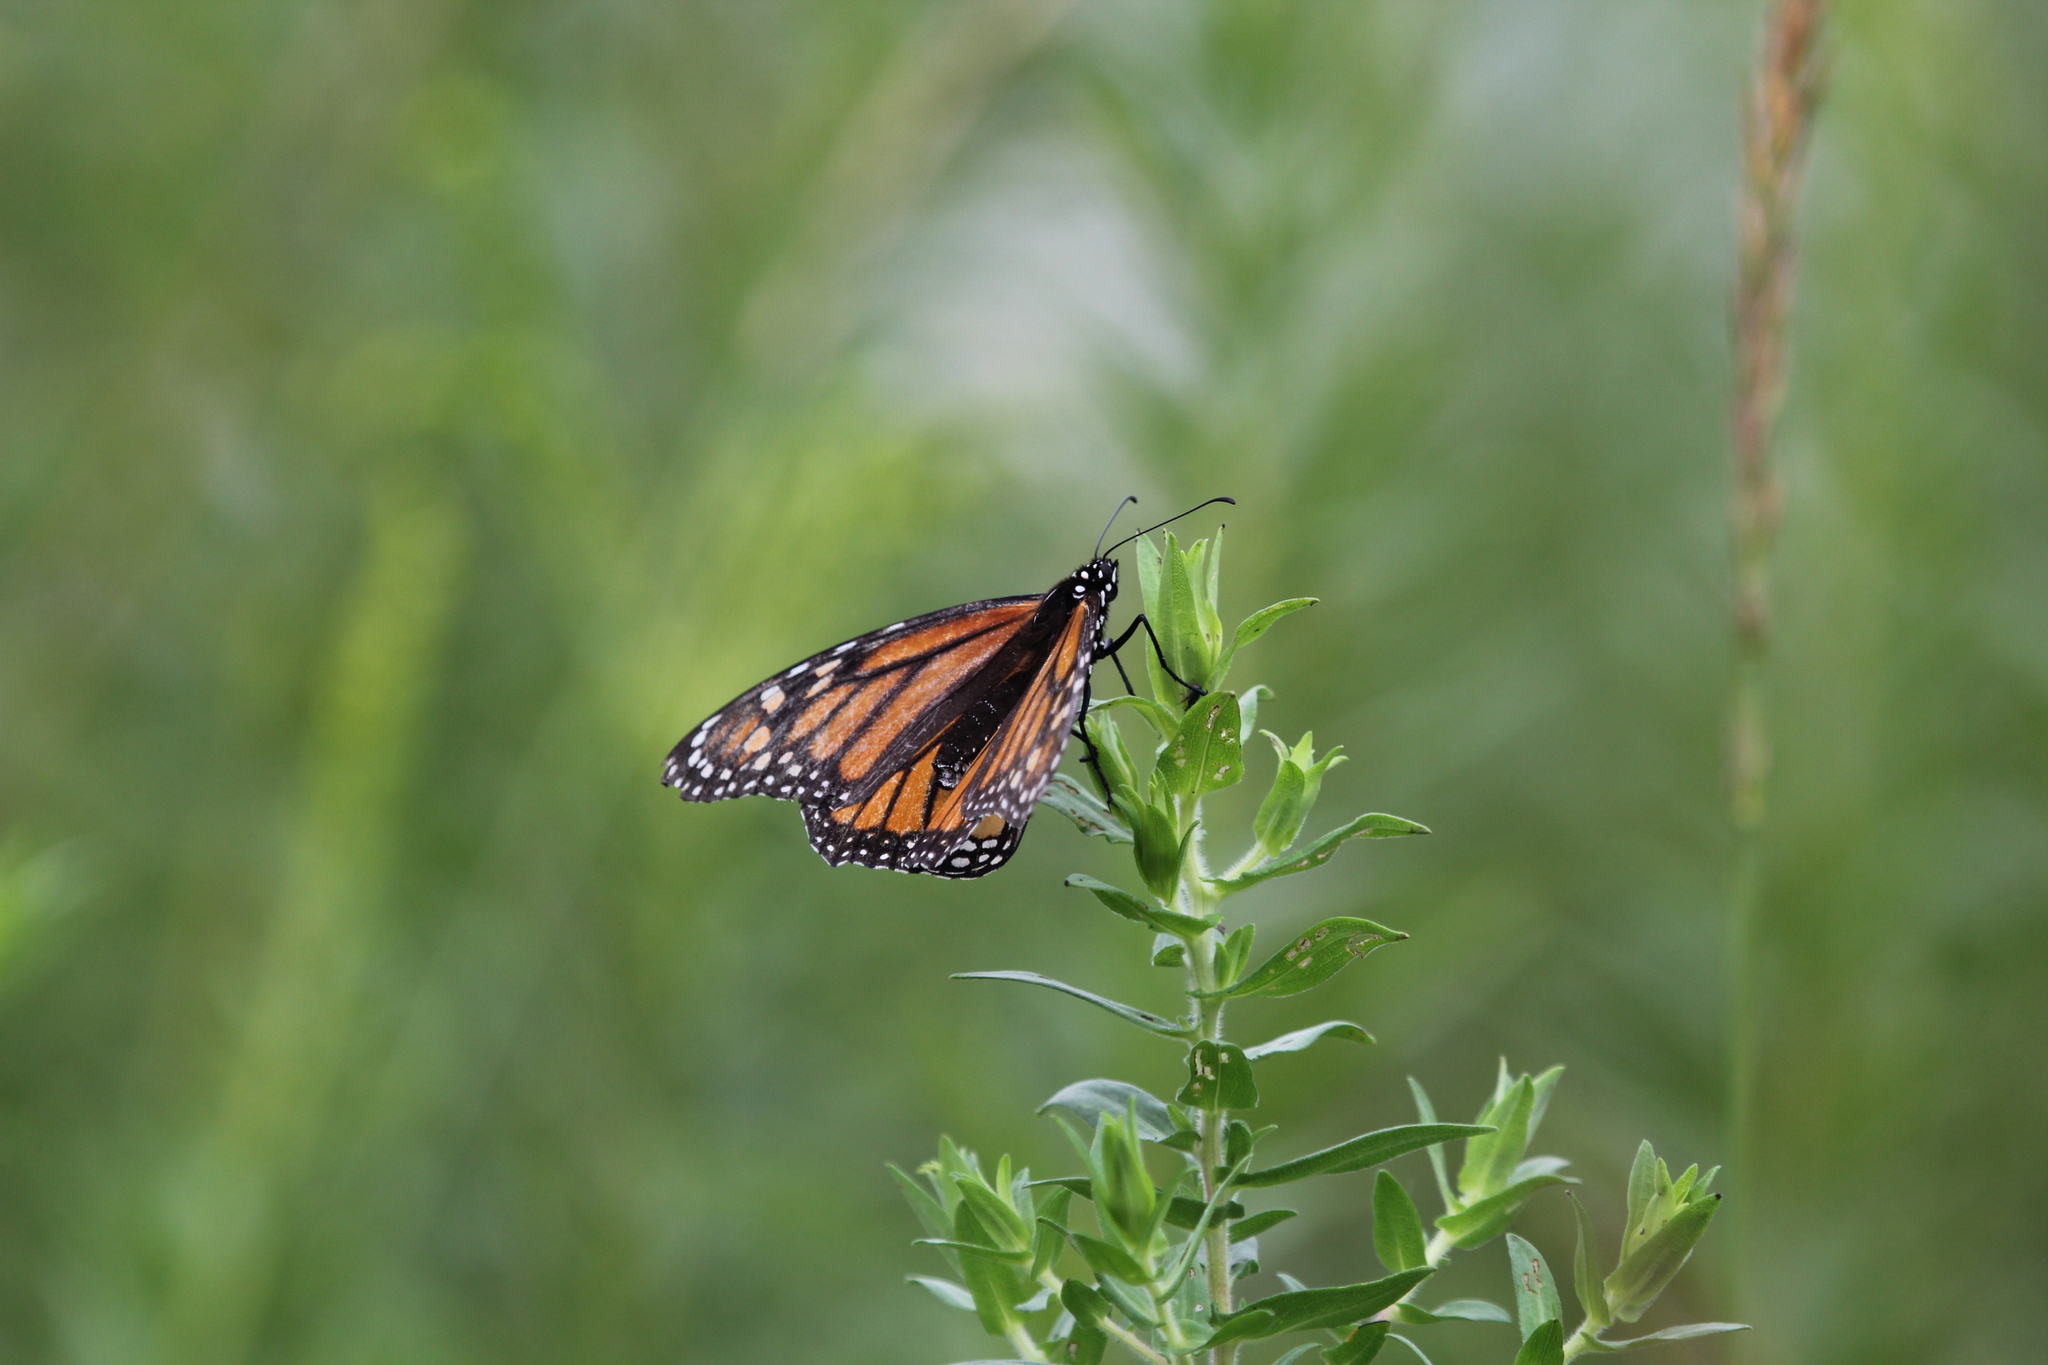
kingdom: Animalia
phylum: Arthropoda
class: Insecta
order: Lepidoptera
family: Nymphalidae
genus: Danaus
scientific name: Danaus plexippus
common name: Monarch
